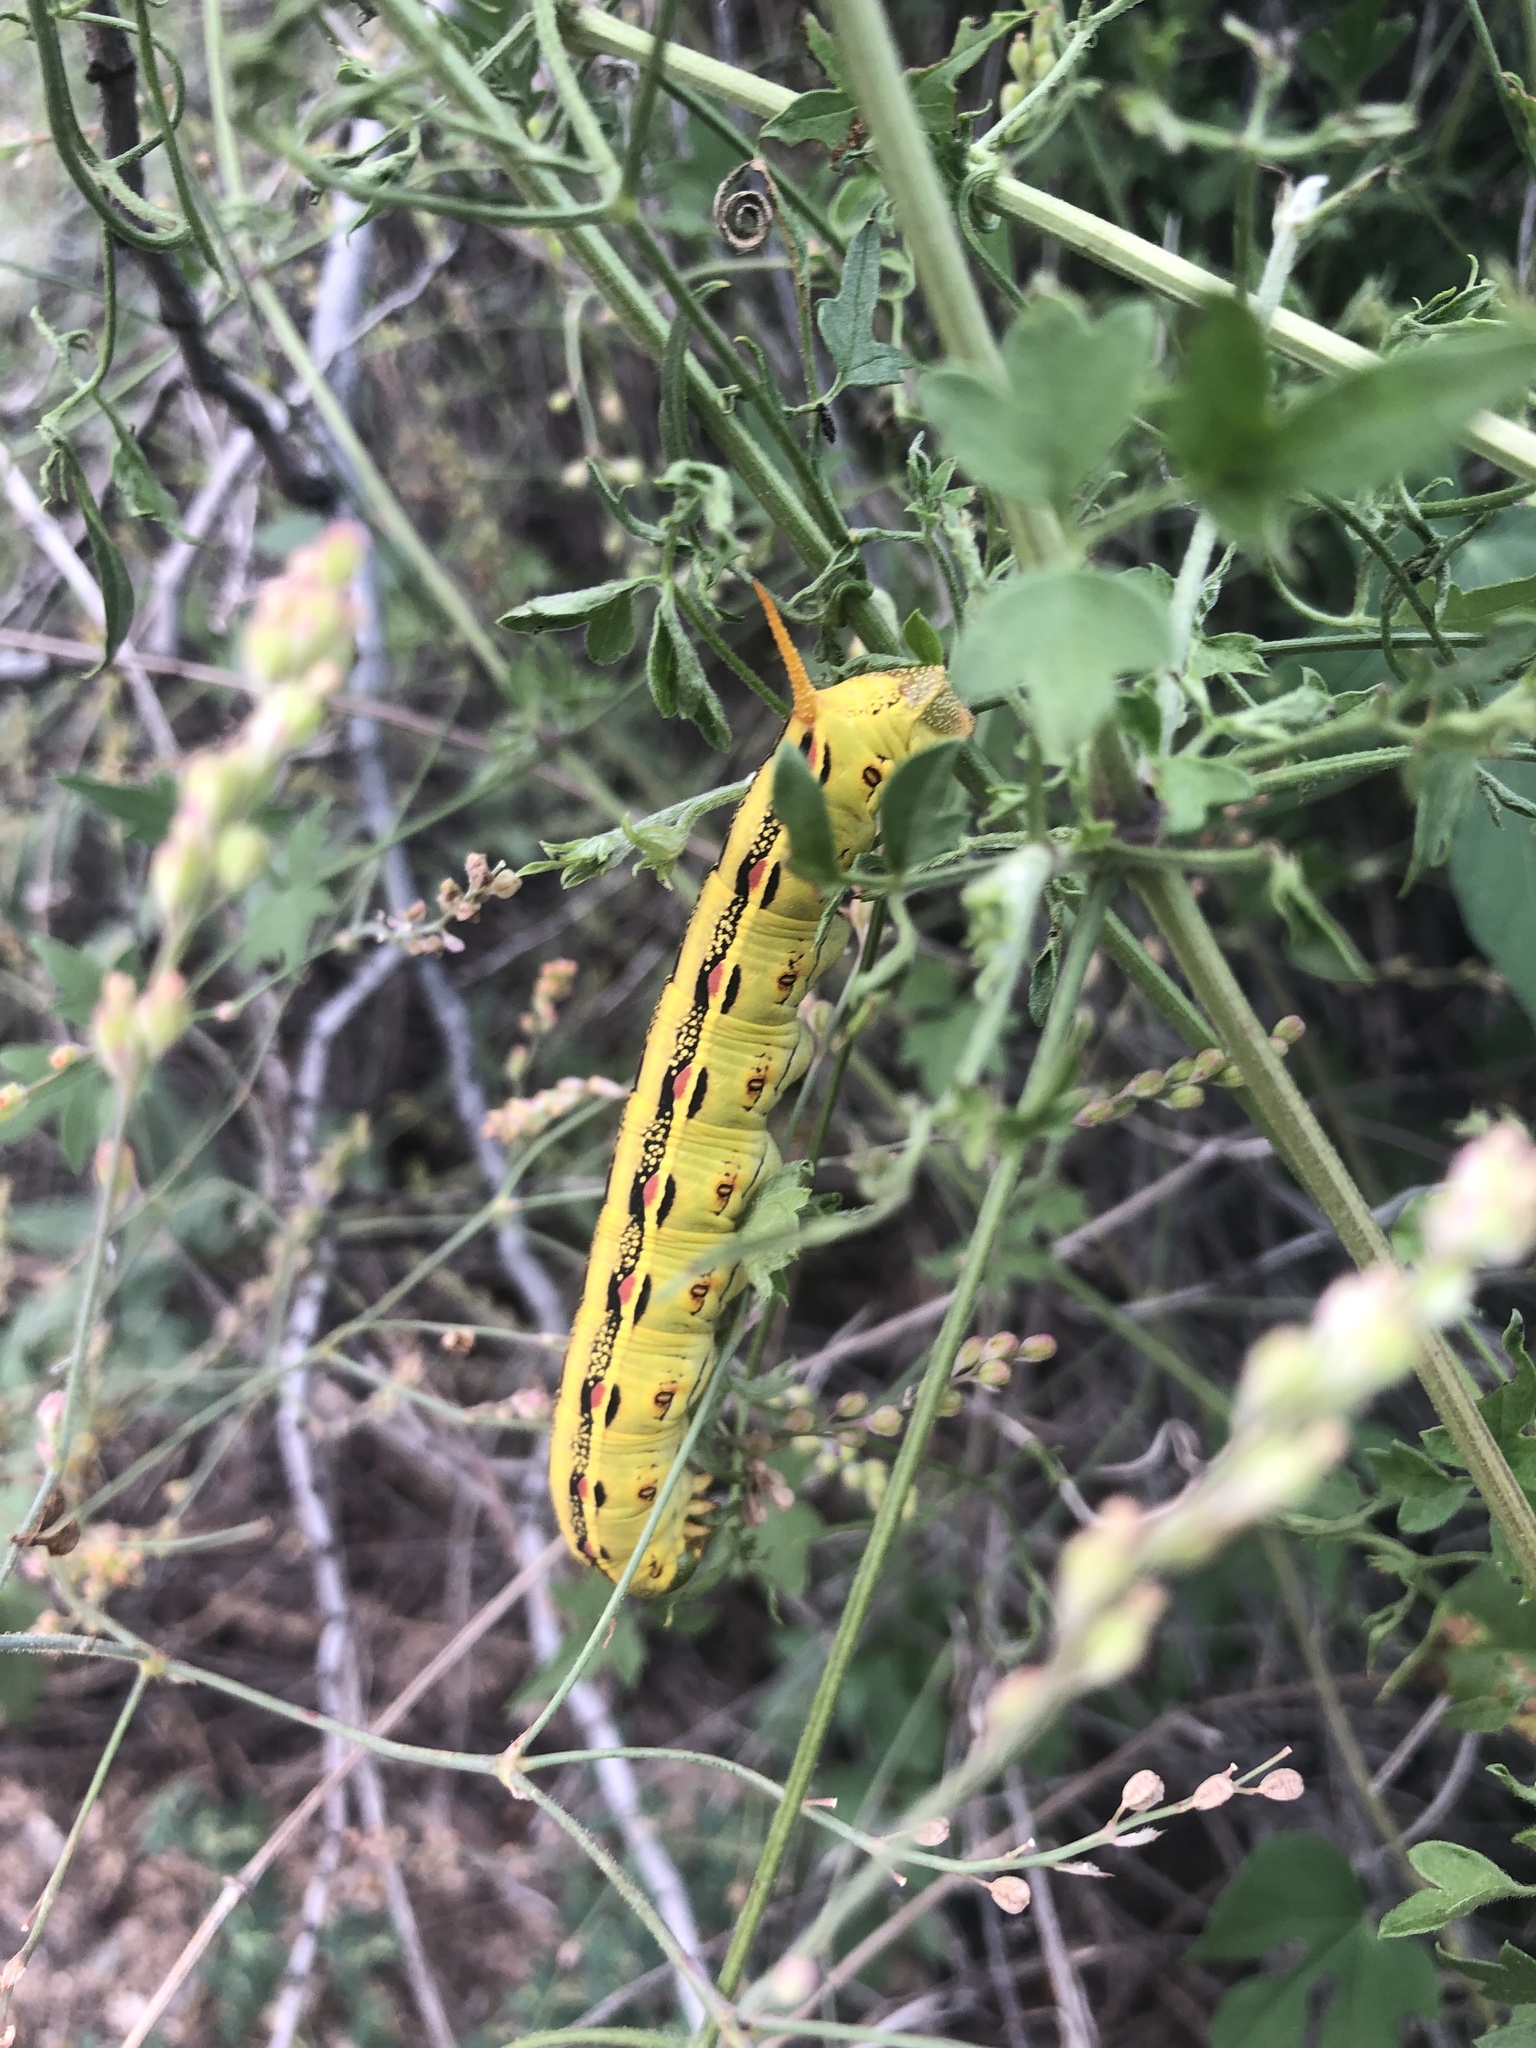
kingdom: Animalia
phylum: Arthropoda
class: Insecta
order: Lepidoptera
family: Sphingidae
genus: Hyles
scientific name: Hyles lineata
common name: White-lined sphinx
